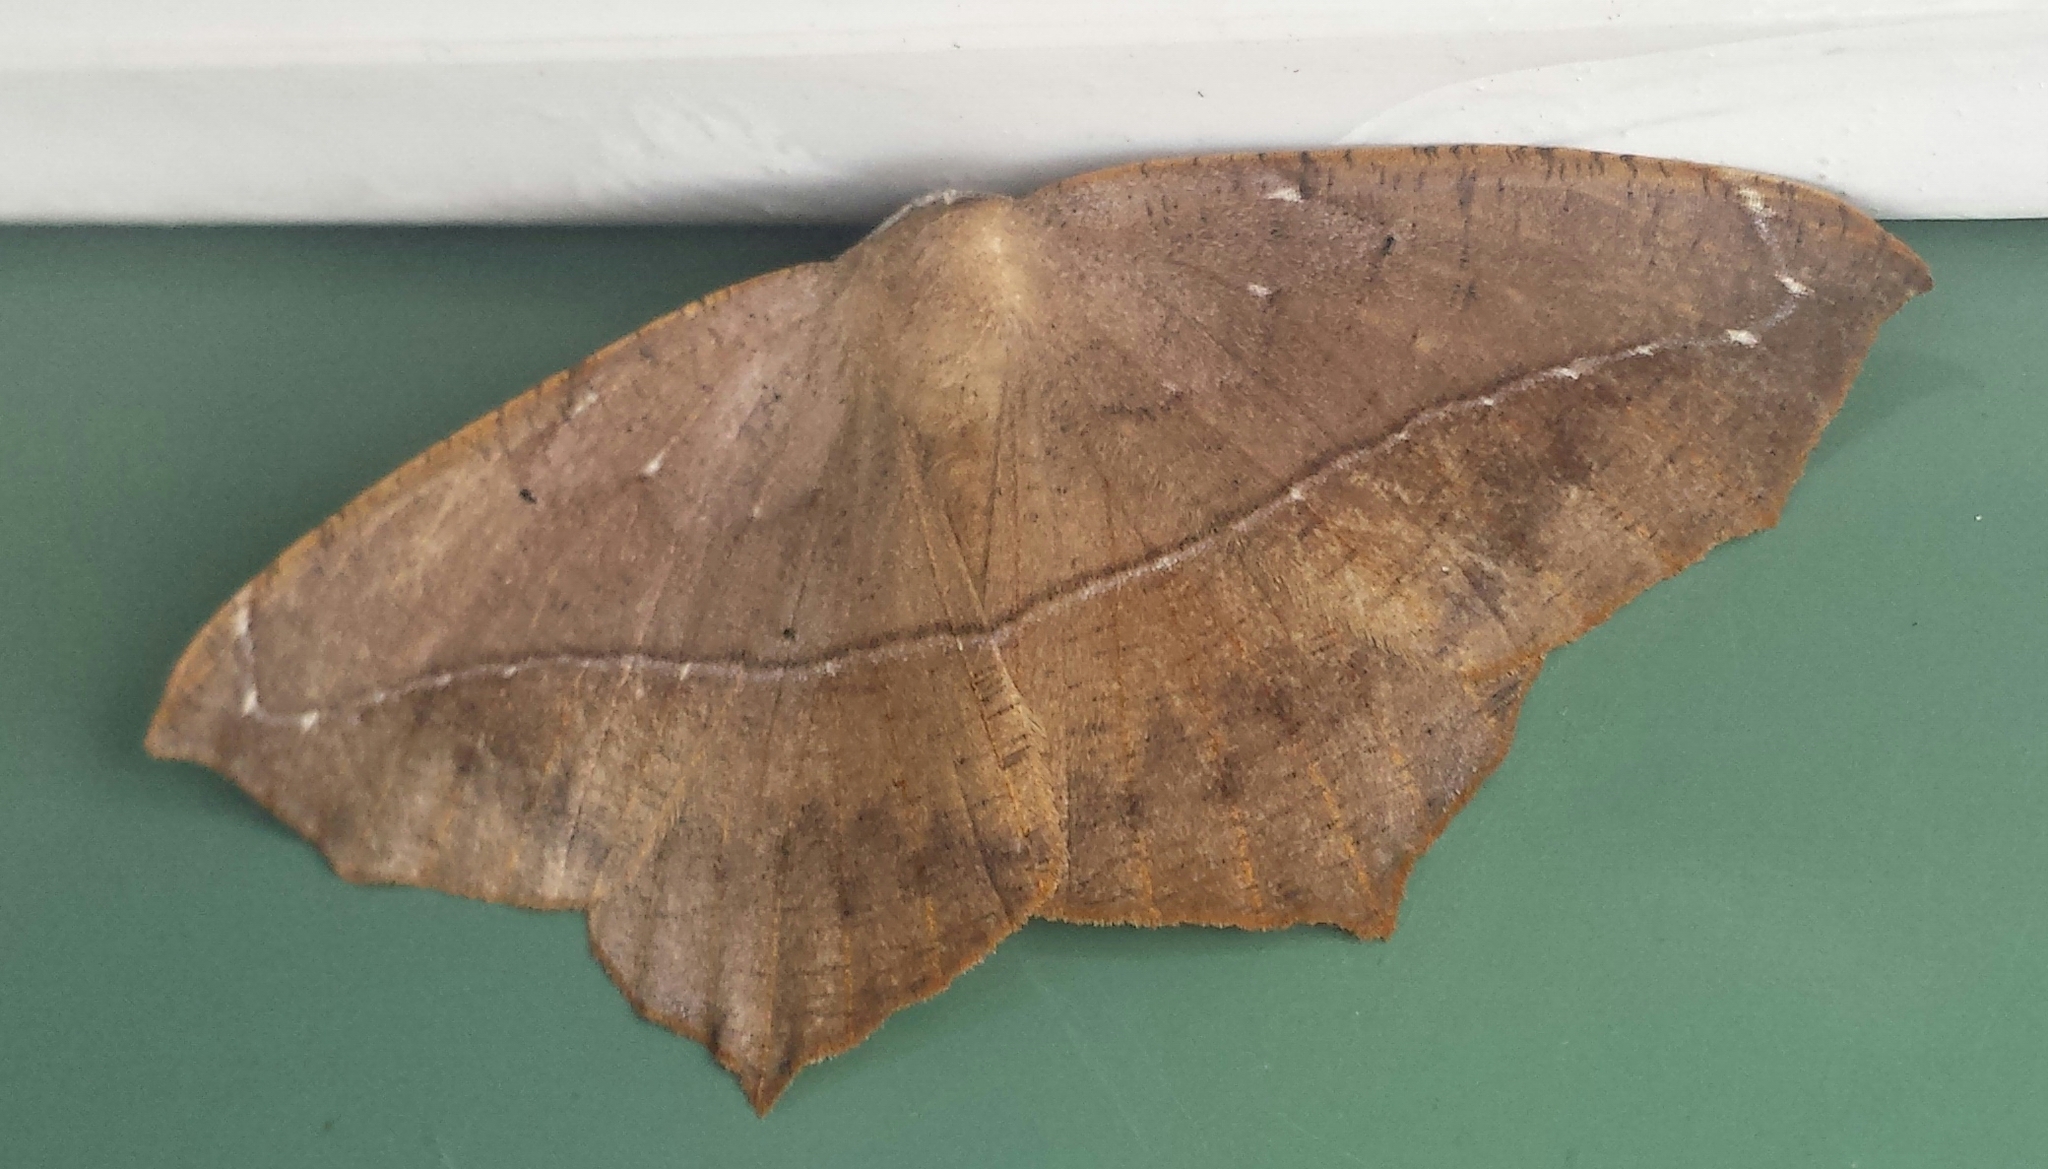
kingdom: Animalia
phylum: Arthropoda
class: Insecta
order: Lepidoptera
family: Geometridae
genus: Prochoerodes
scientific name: Prochoerodes lineola
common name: Large maple spanworm
